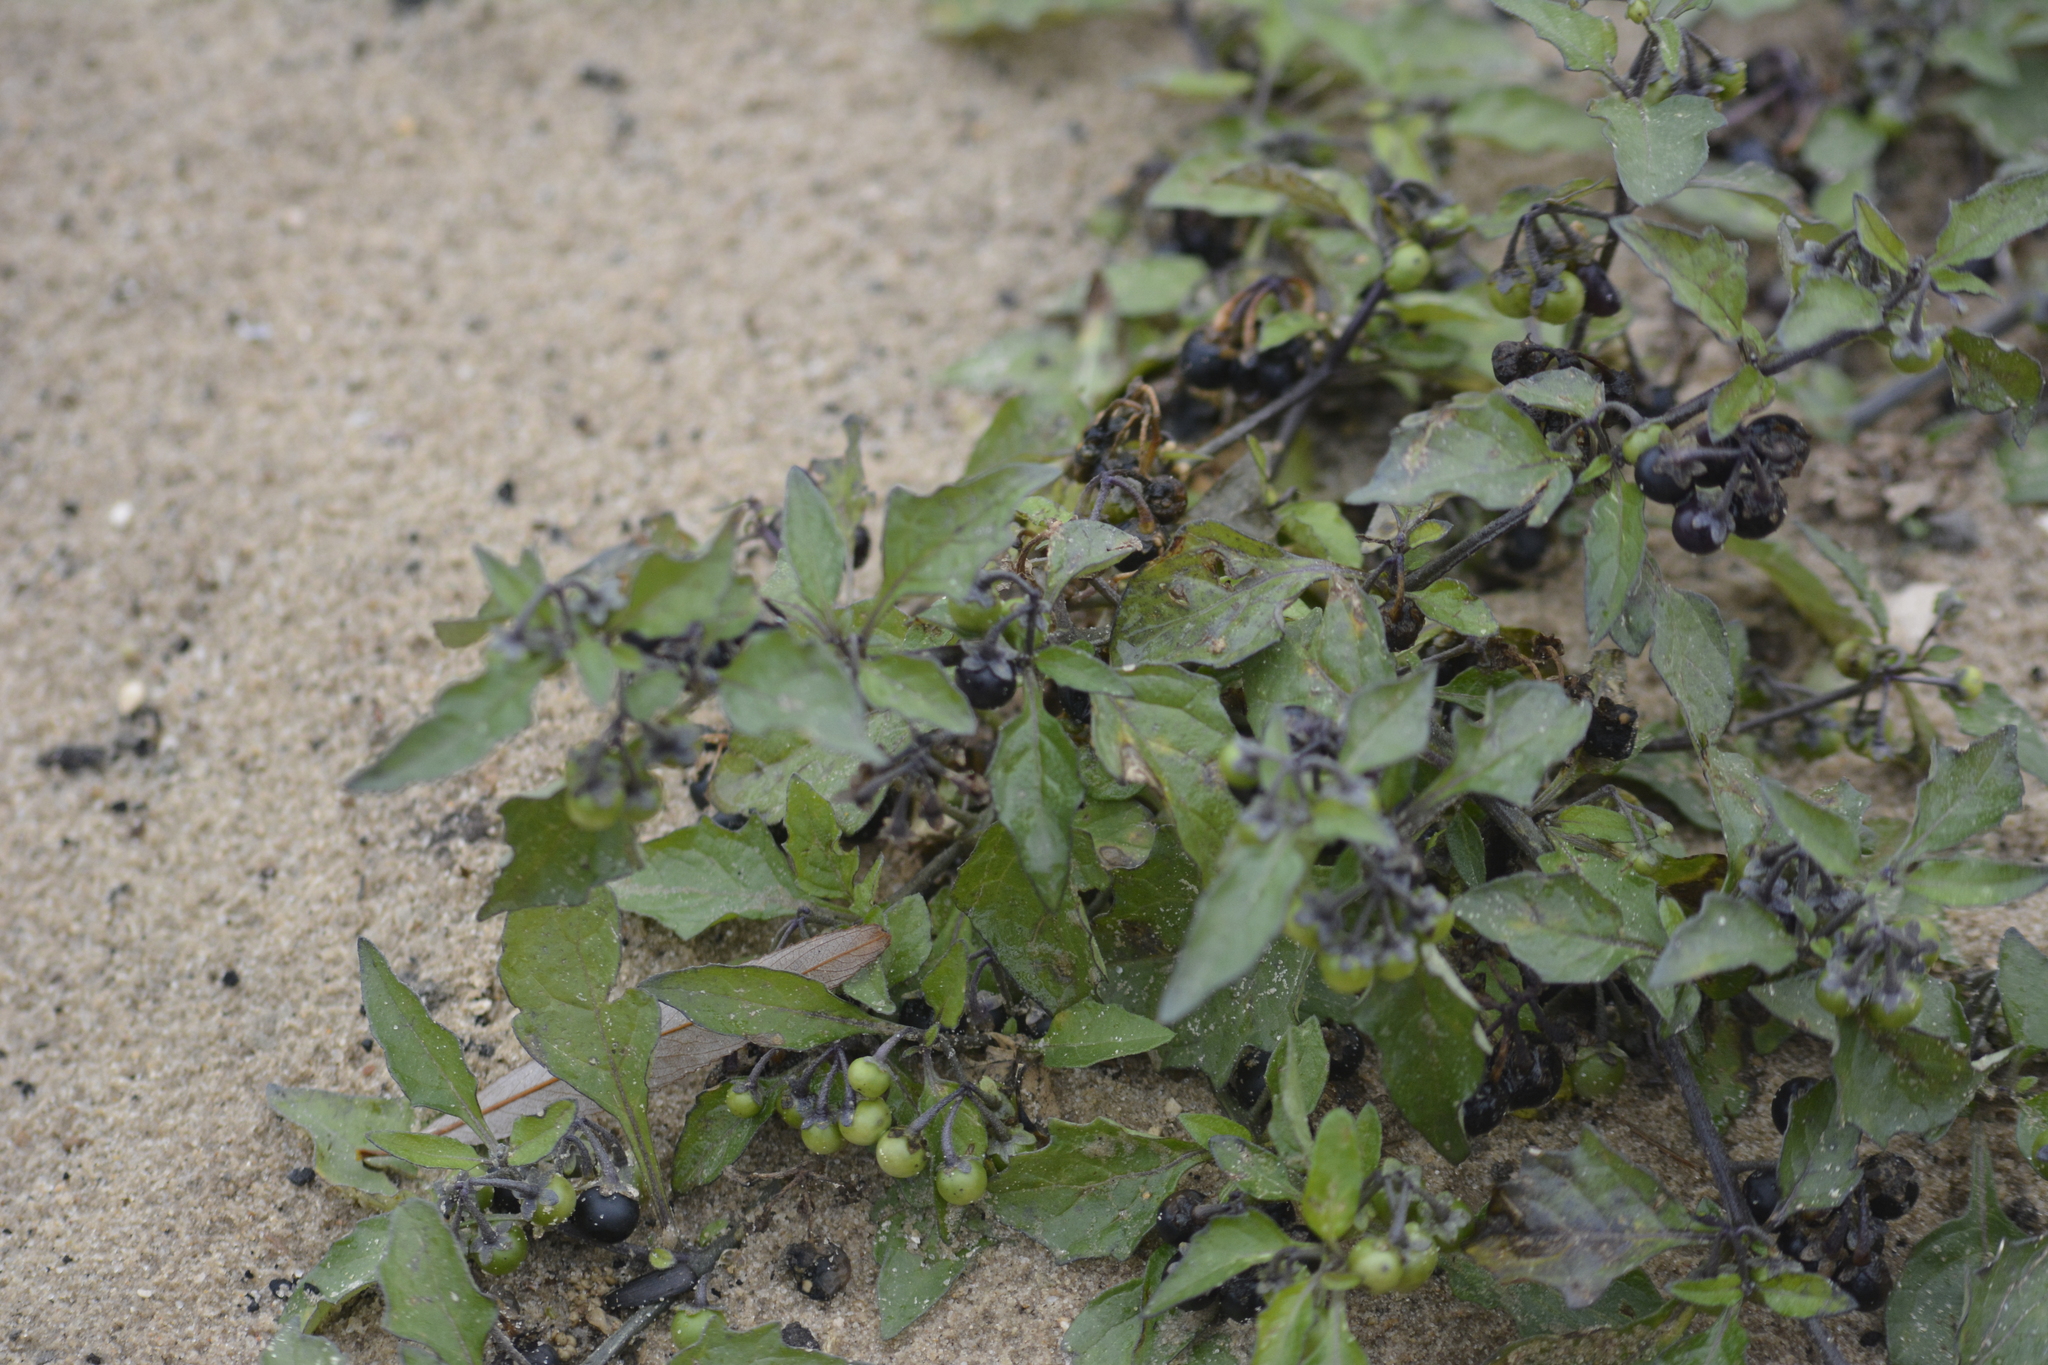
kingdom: Plantae
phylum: Tracheophyta
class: Magnoliopsida
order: Solanales
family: Solanaceae
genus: Solanum
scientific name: Solanum nigrum
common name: Black nightshade
